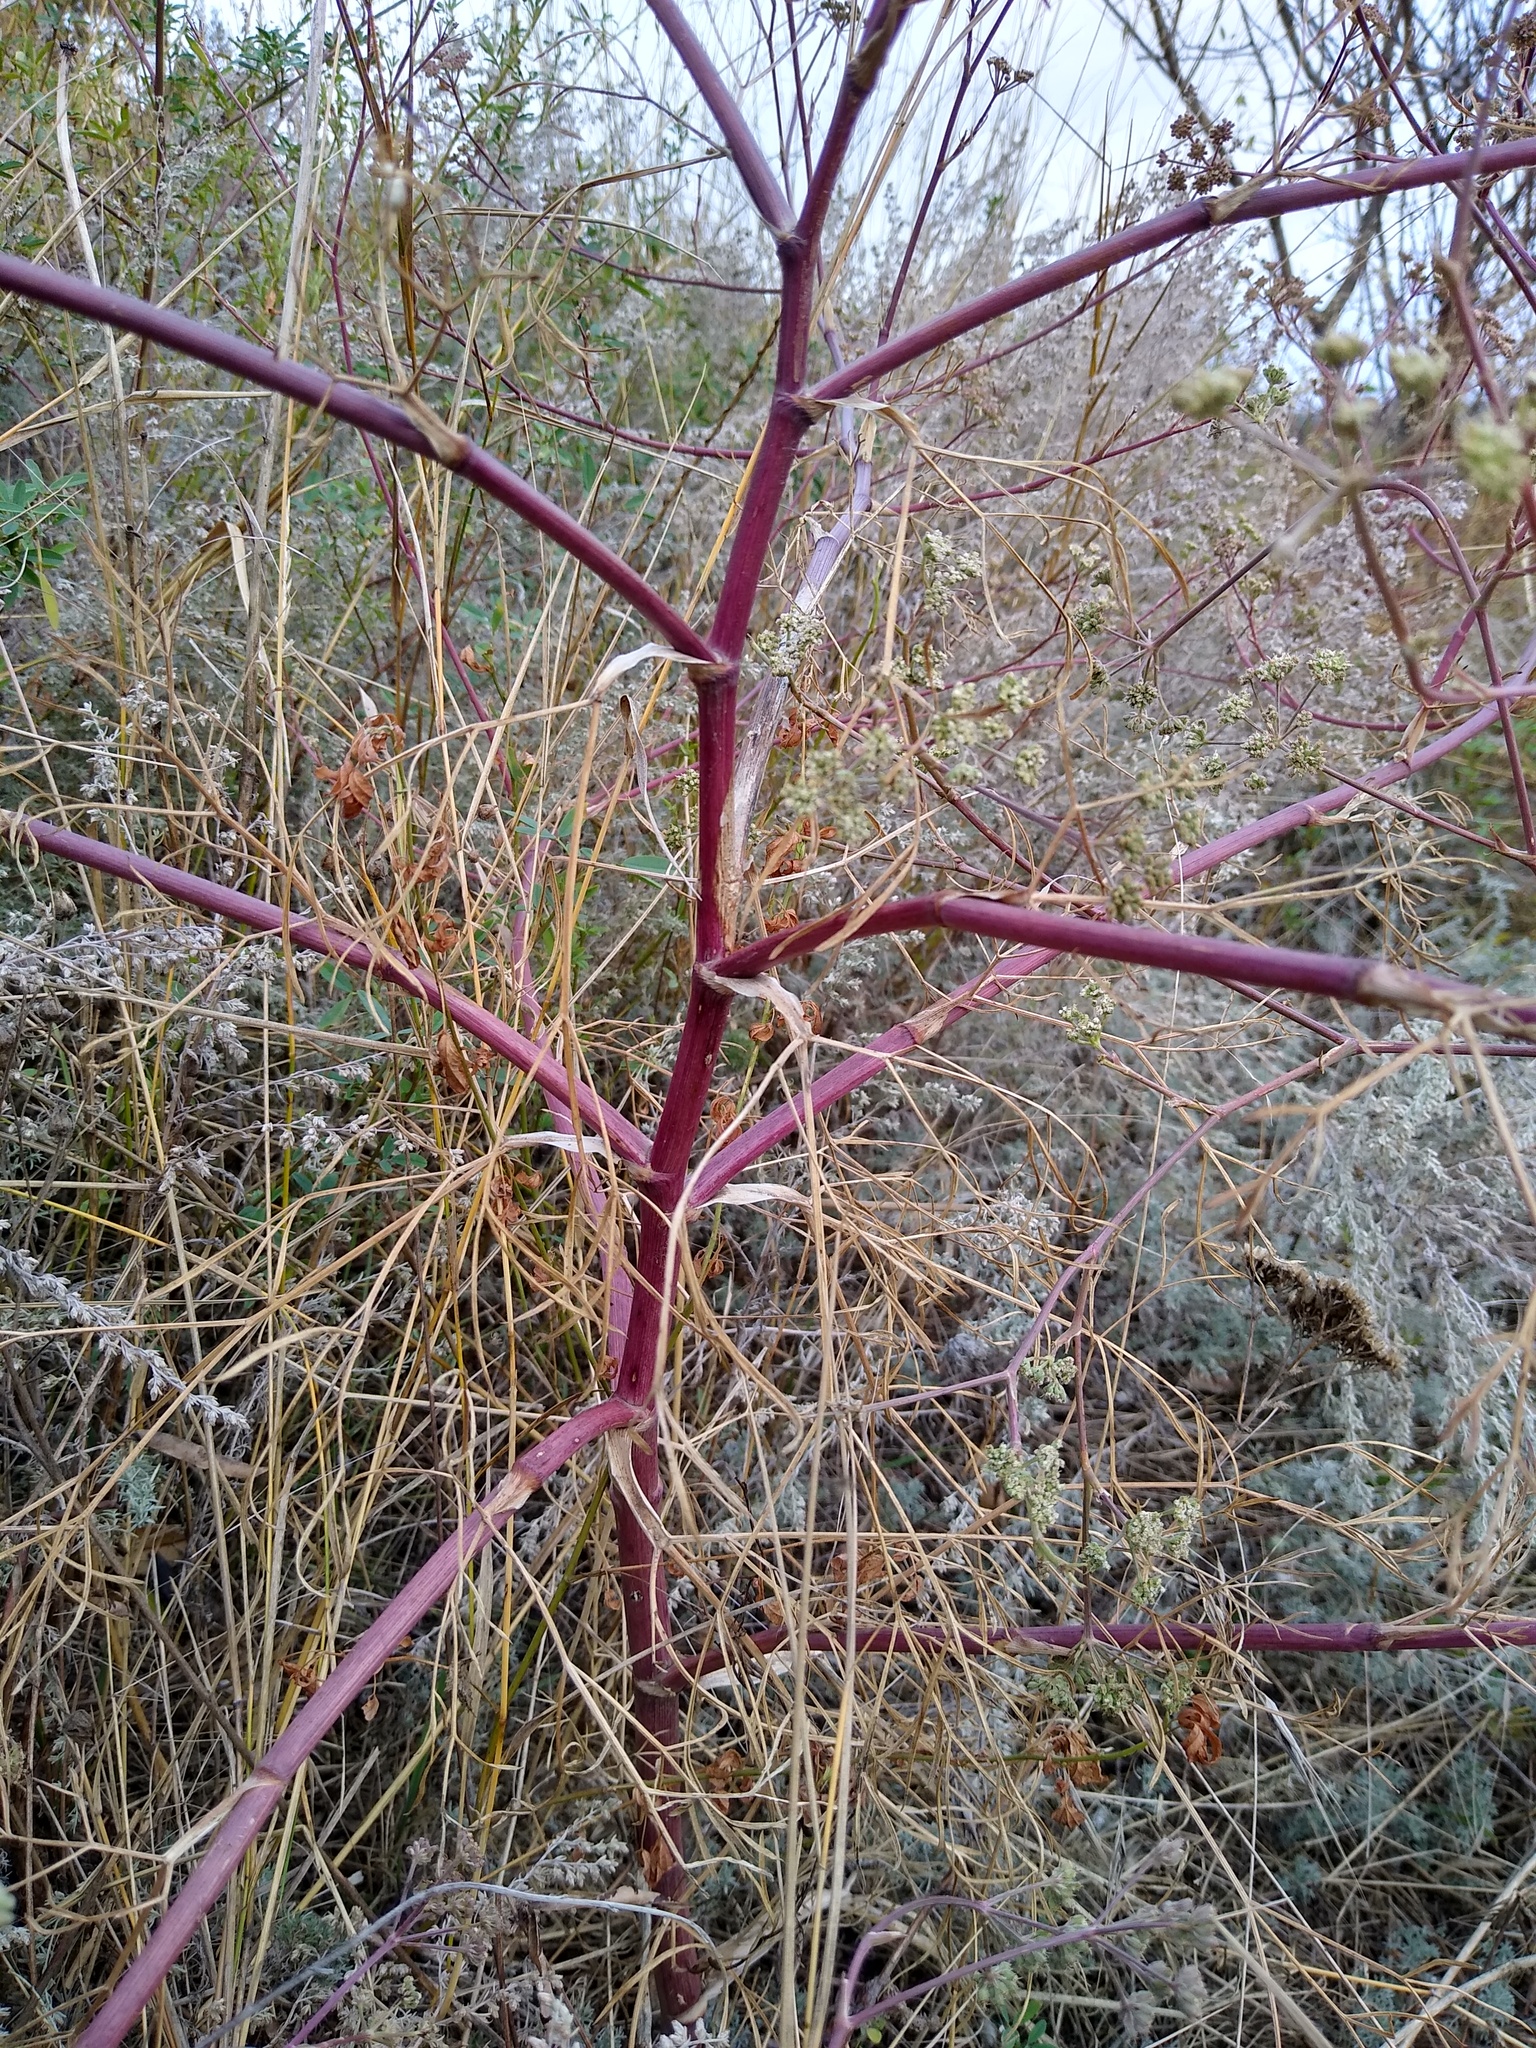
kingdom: Plantae
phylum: Tracheophyta
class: Magnoliopsida
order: Apiales
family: Apiaceae
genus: Seseli
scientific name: Seseli arenarium
